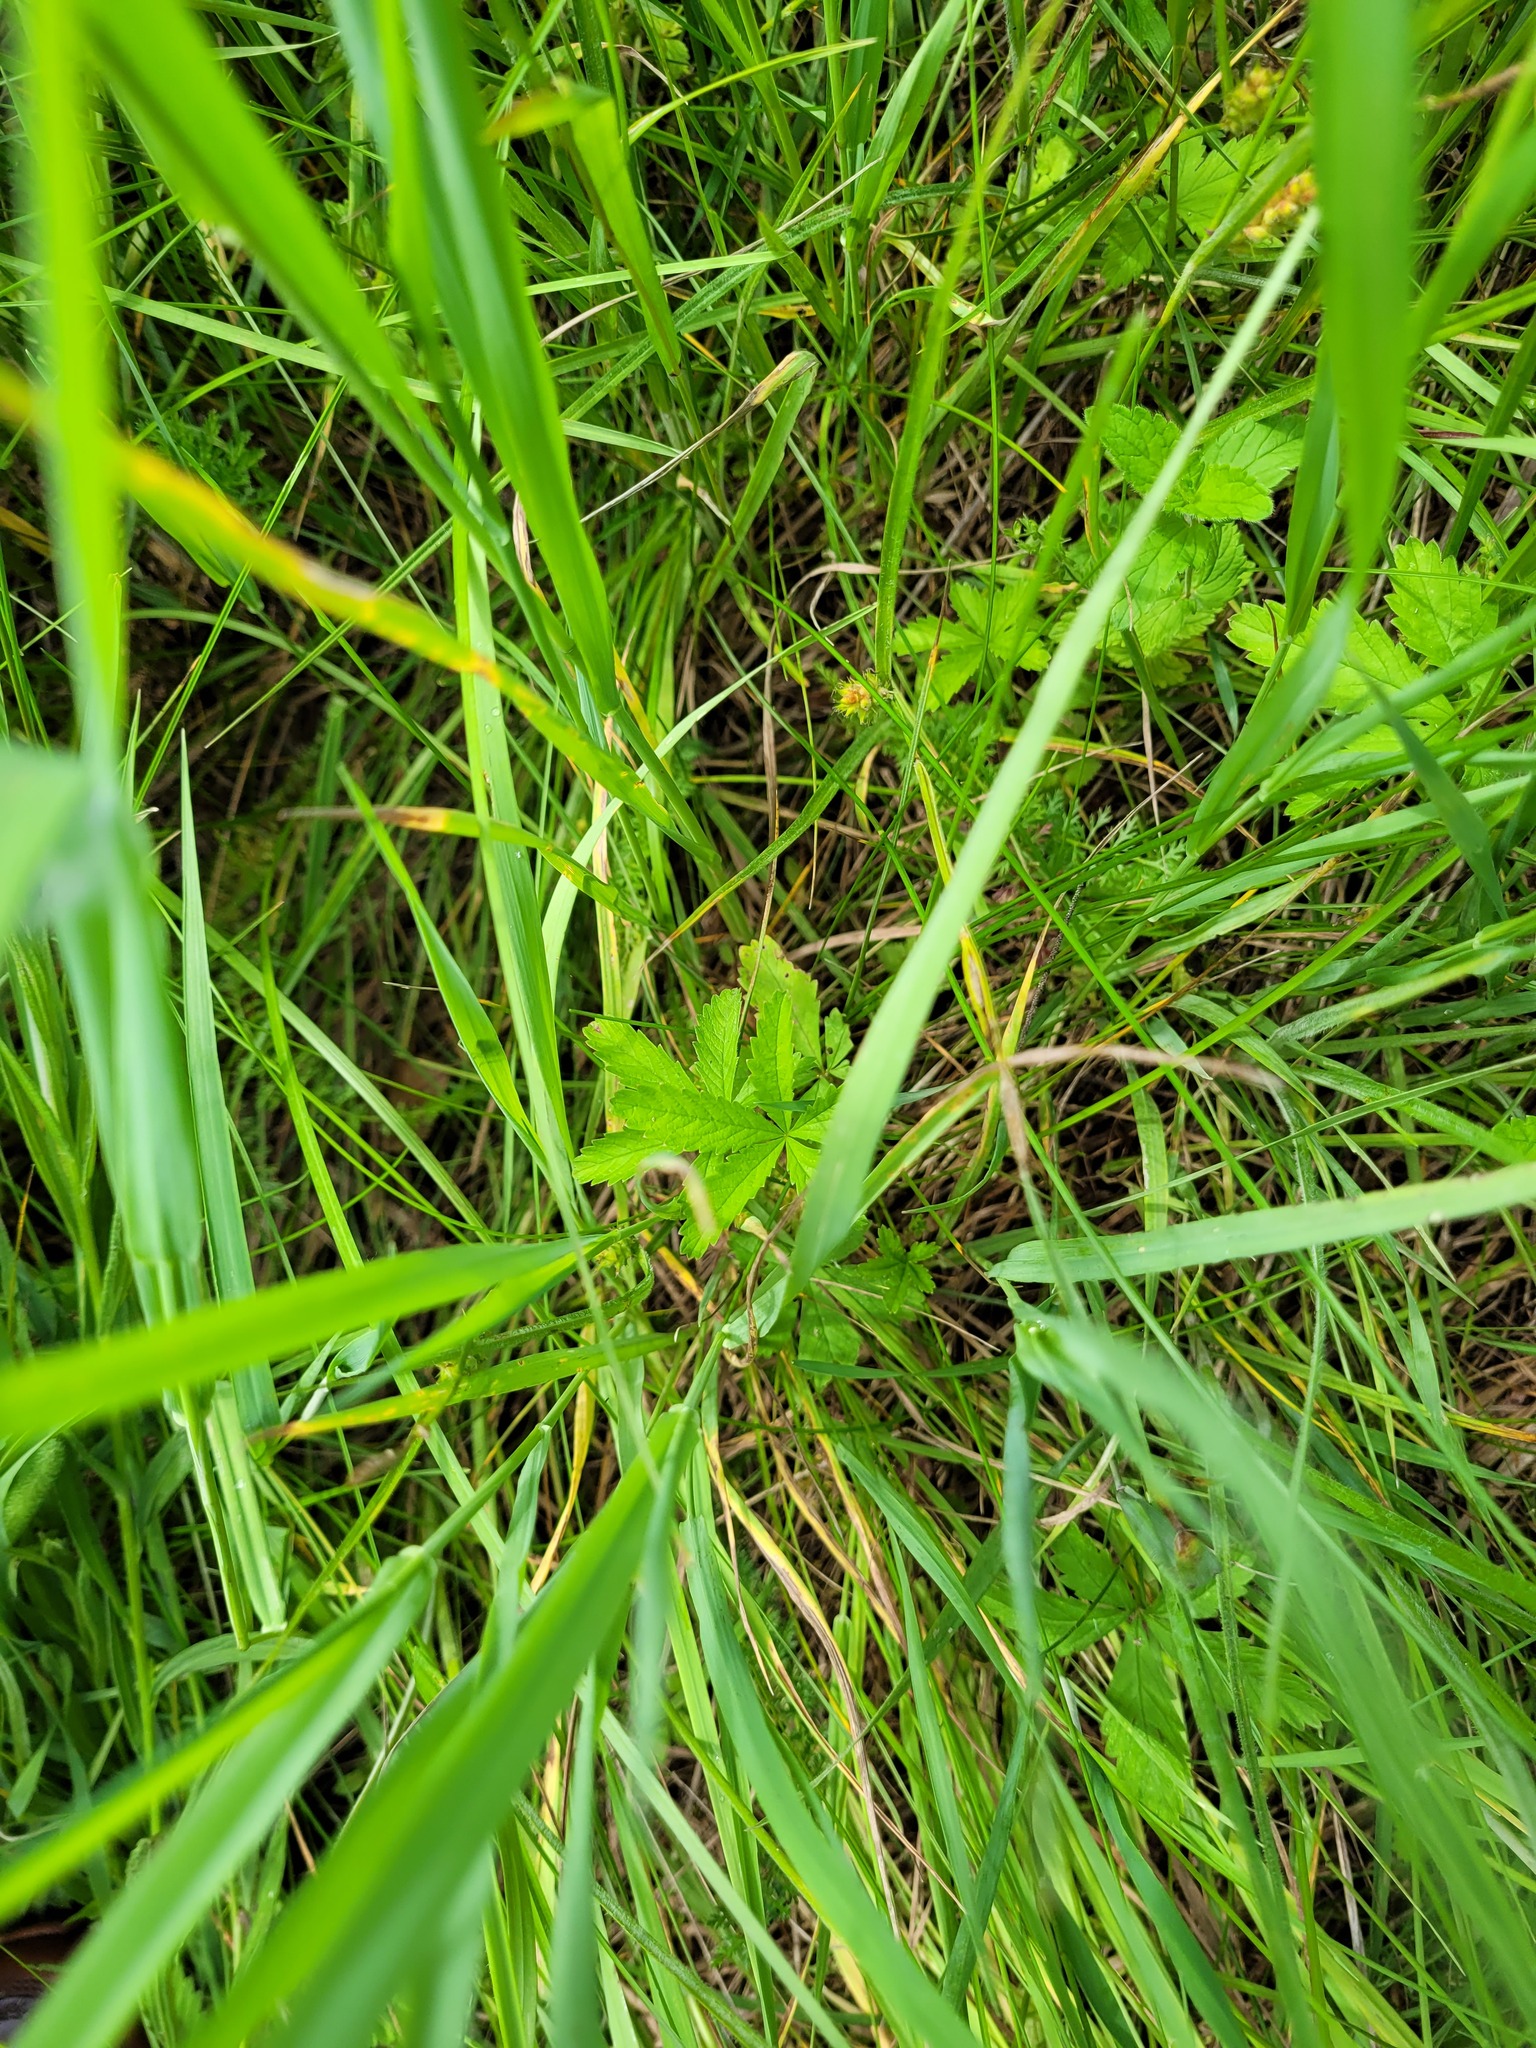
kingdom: Plantae
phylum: Tracheophyta
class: Magnoliopsida
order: Rosales
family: Rosaceae
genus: Potentilla
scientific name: Potentilla reptans
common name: Creeping cinquefoil
